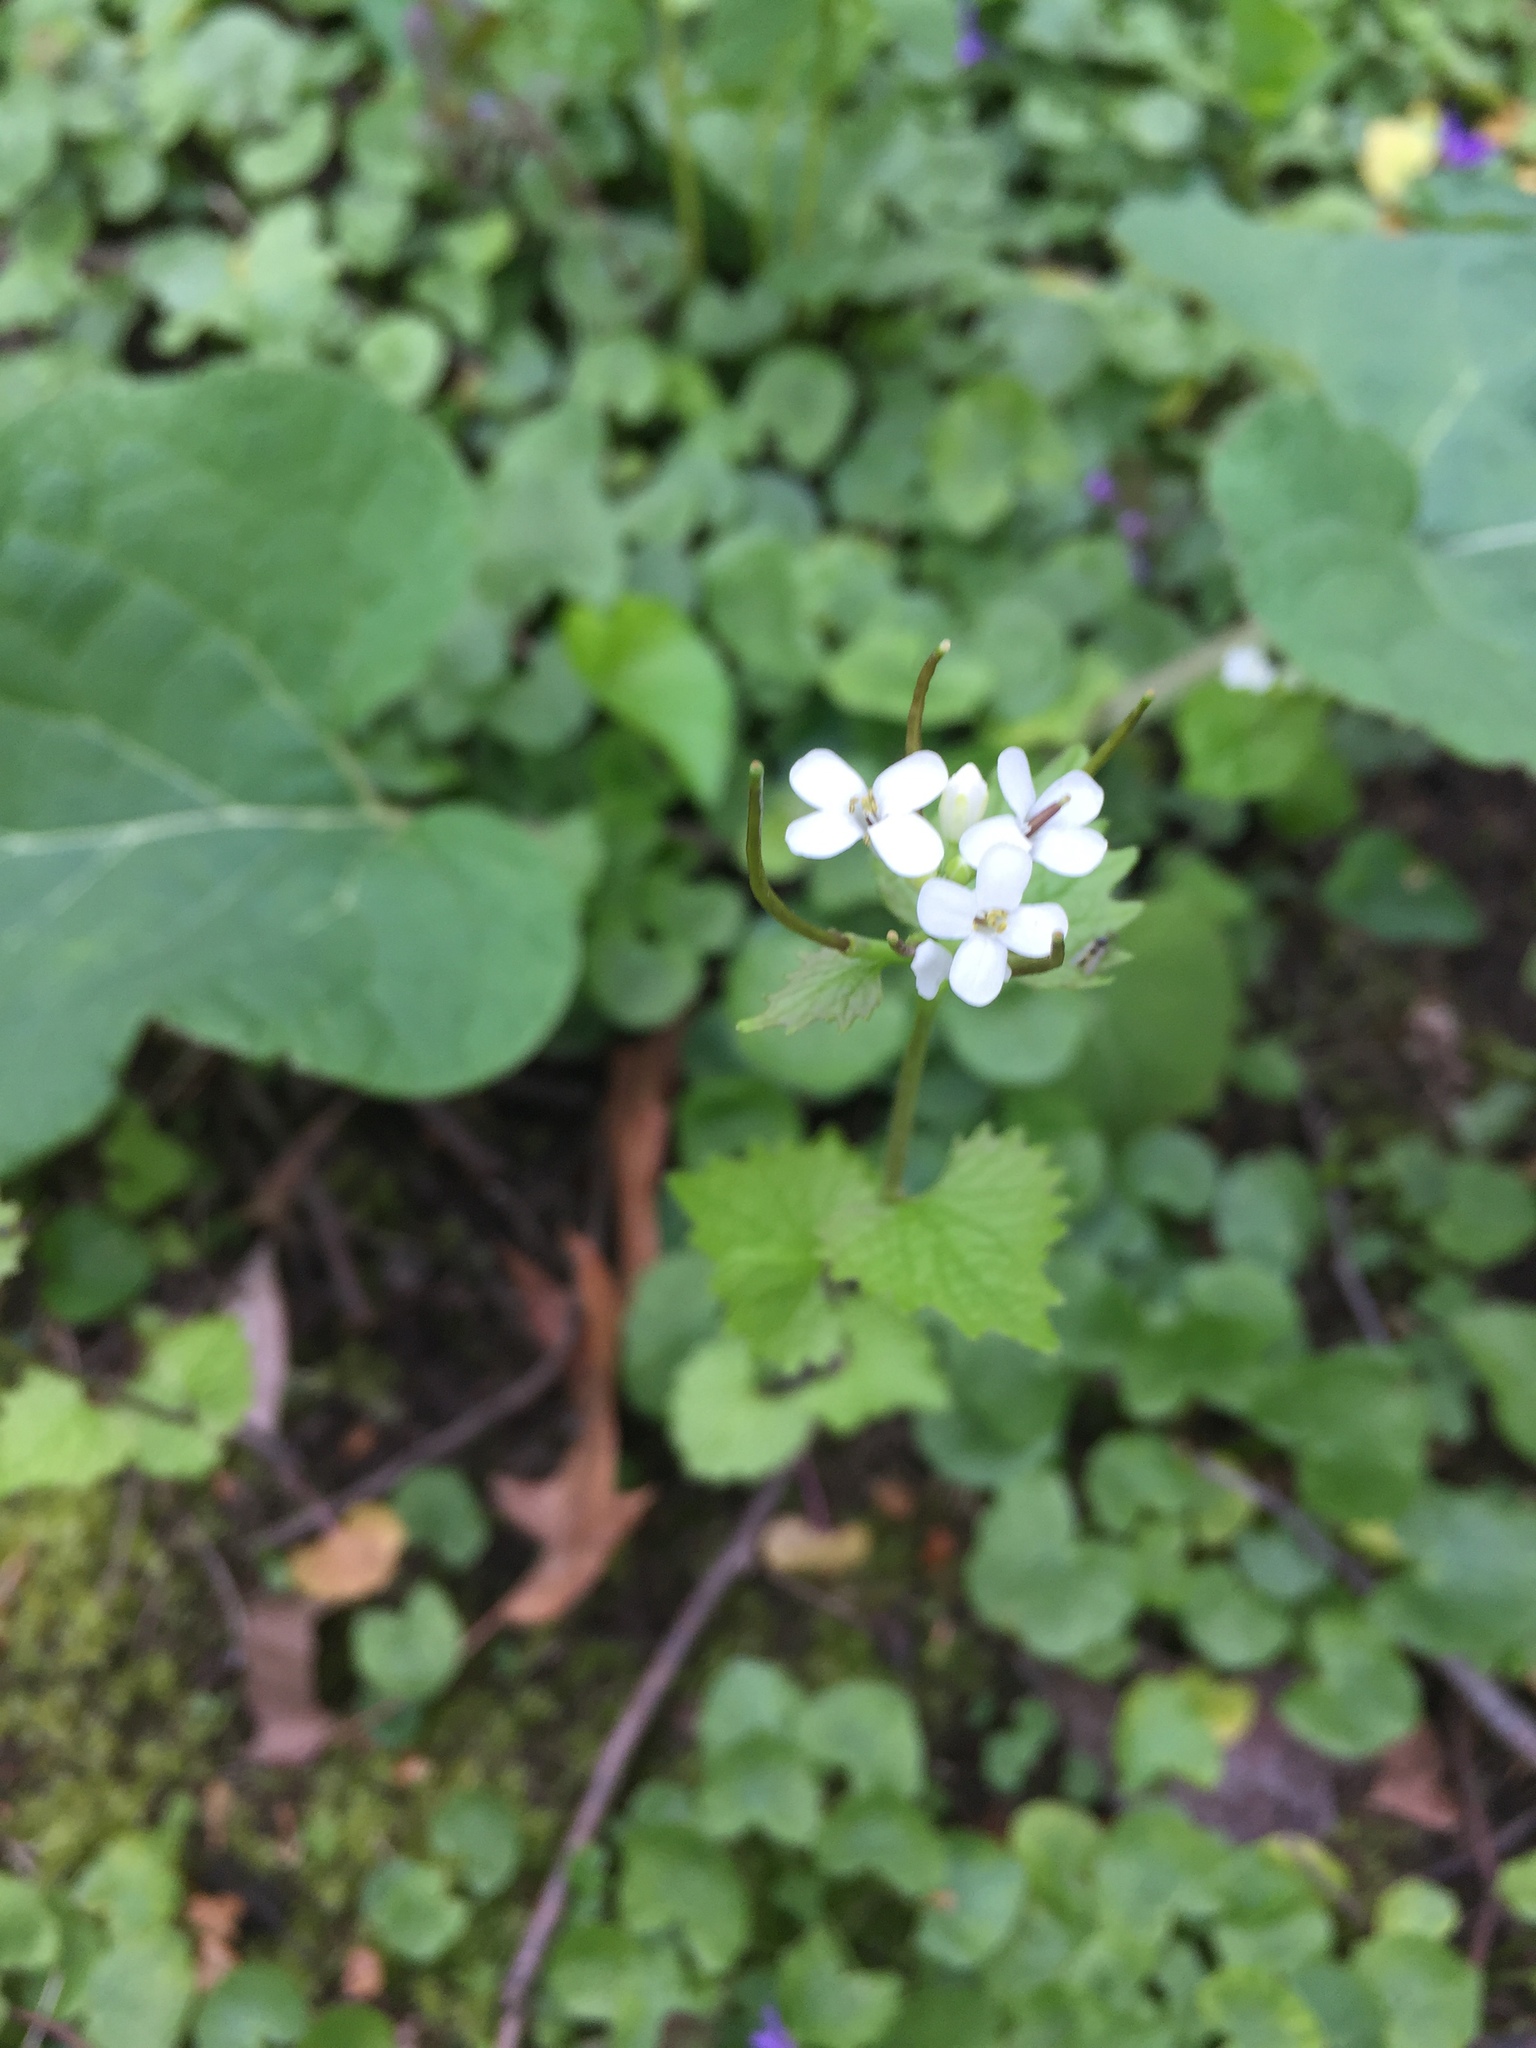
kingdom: Plantae
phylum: Tracheophyta
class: Magnoliopsida
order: Brassicales
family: Brassicaceae
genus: Alliaria
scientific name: Alliaria petiolata
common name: Garlic mustard
